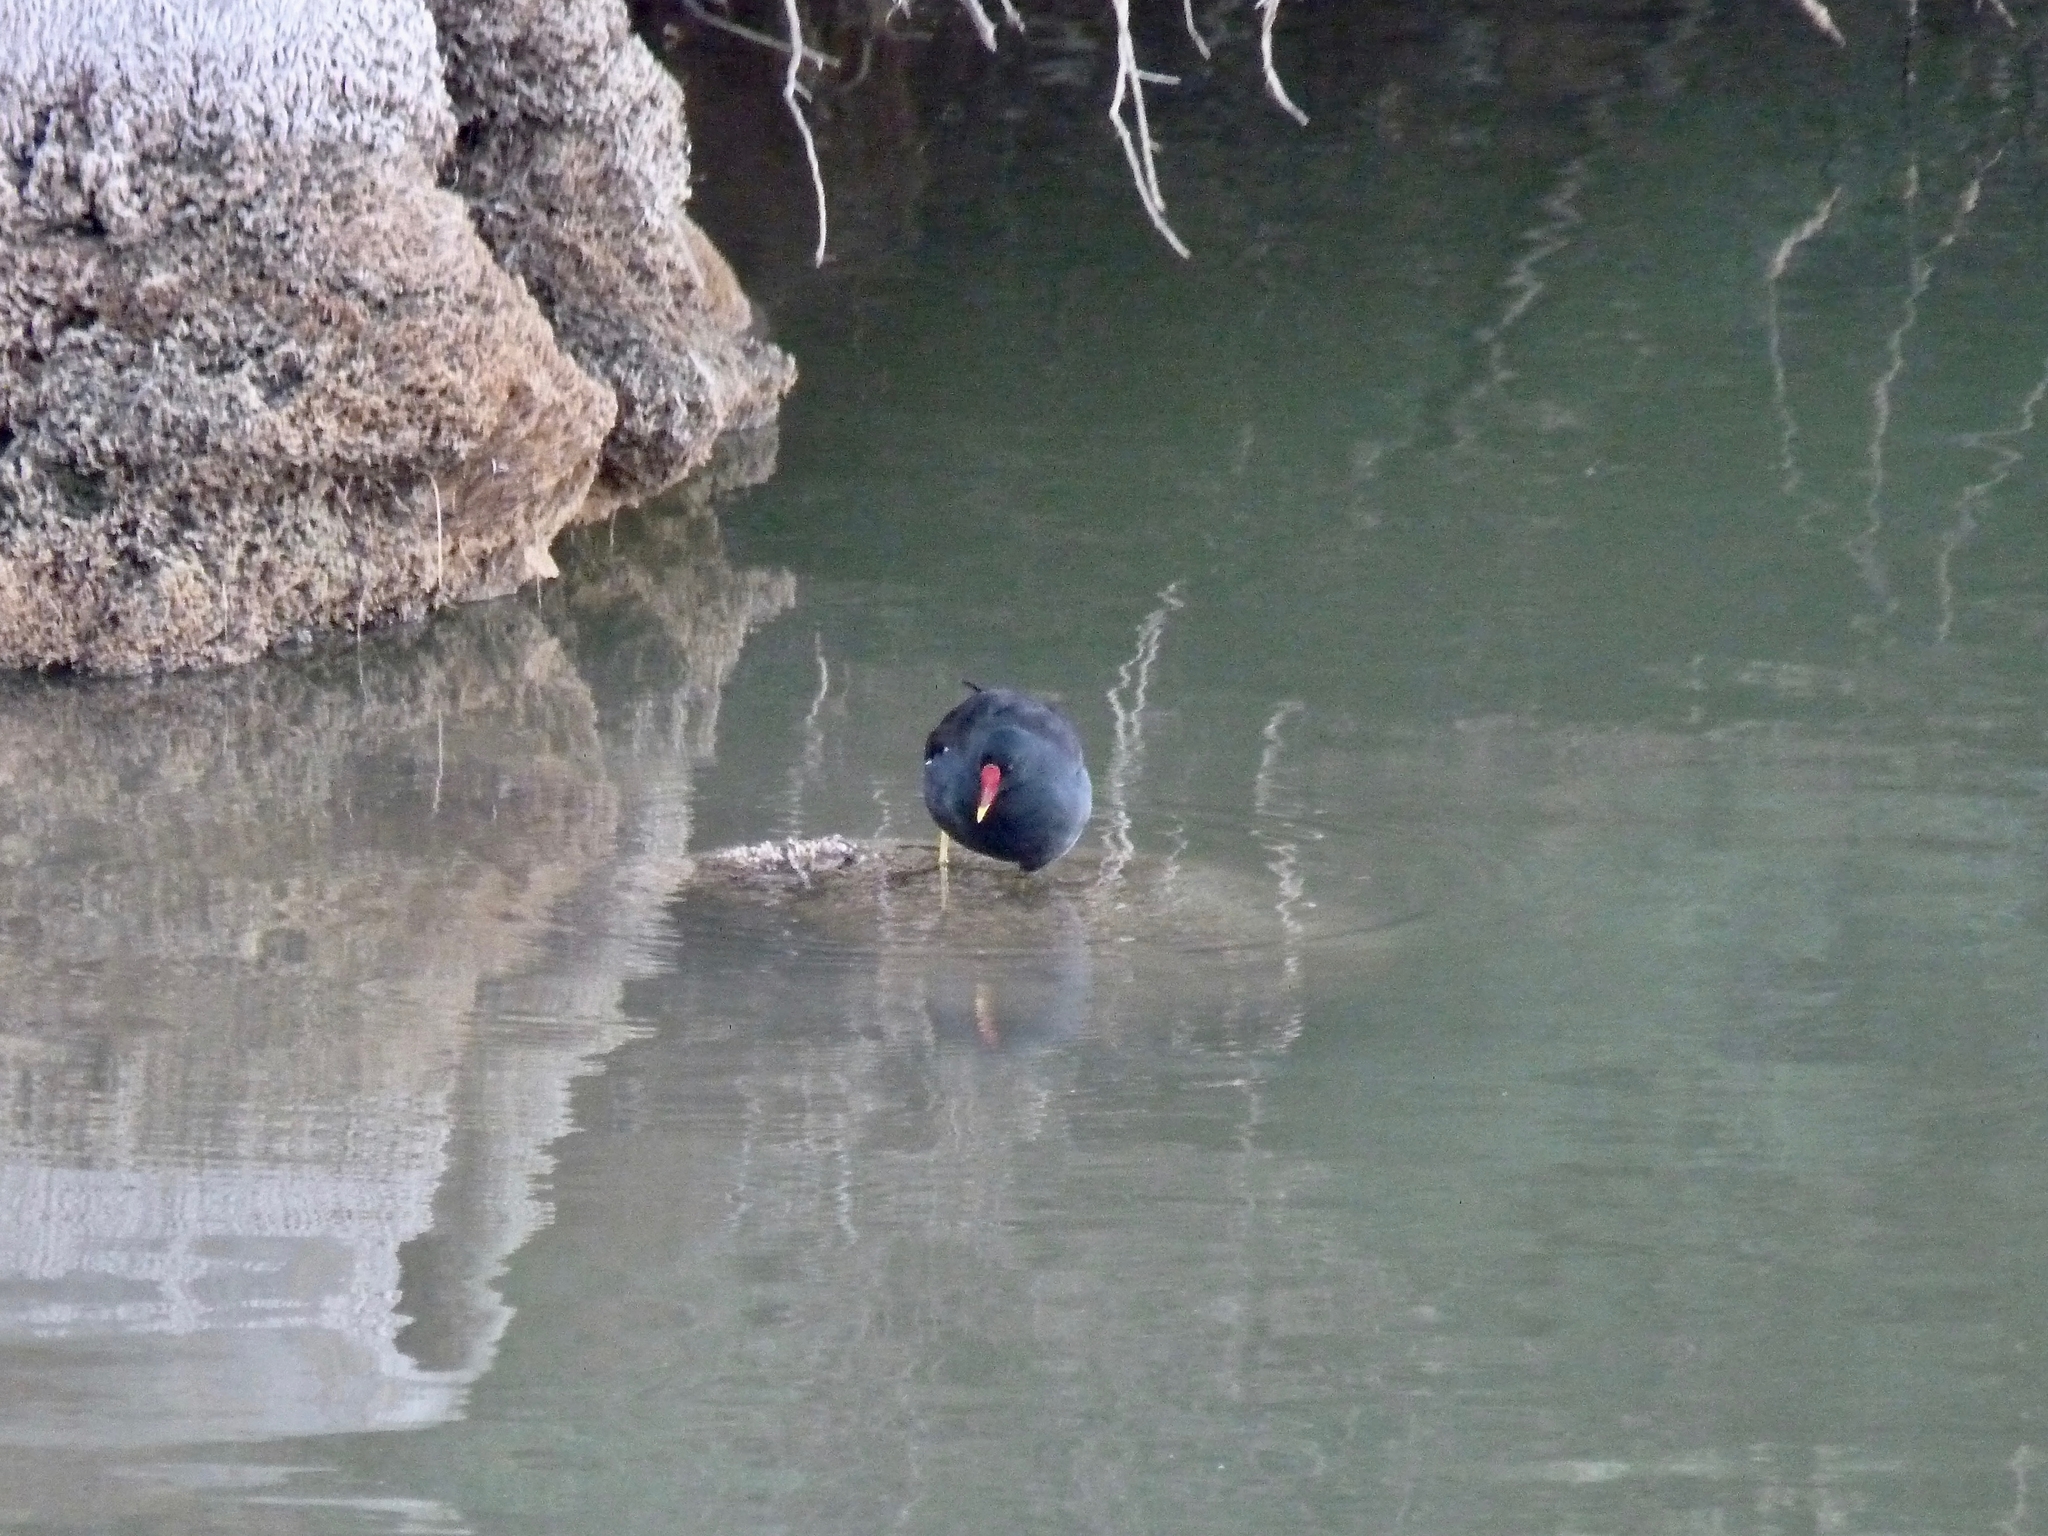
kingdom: Animalia
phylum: Chordata
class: Aves
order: Gruiformes
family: Rallidae
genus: Gallinula
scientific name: Gallinula chloropus
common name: Common moorhen
